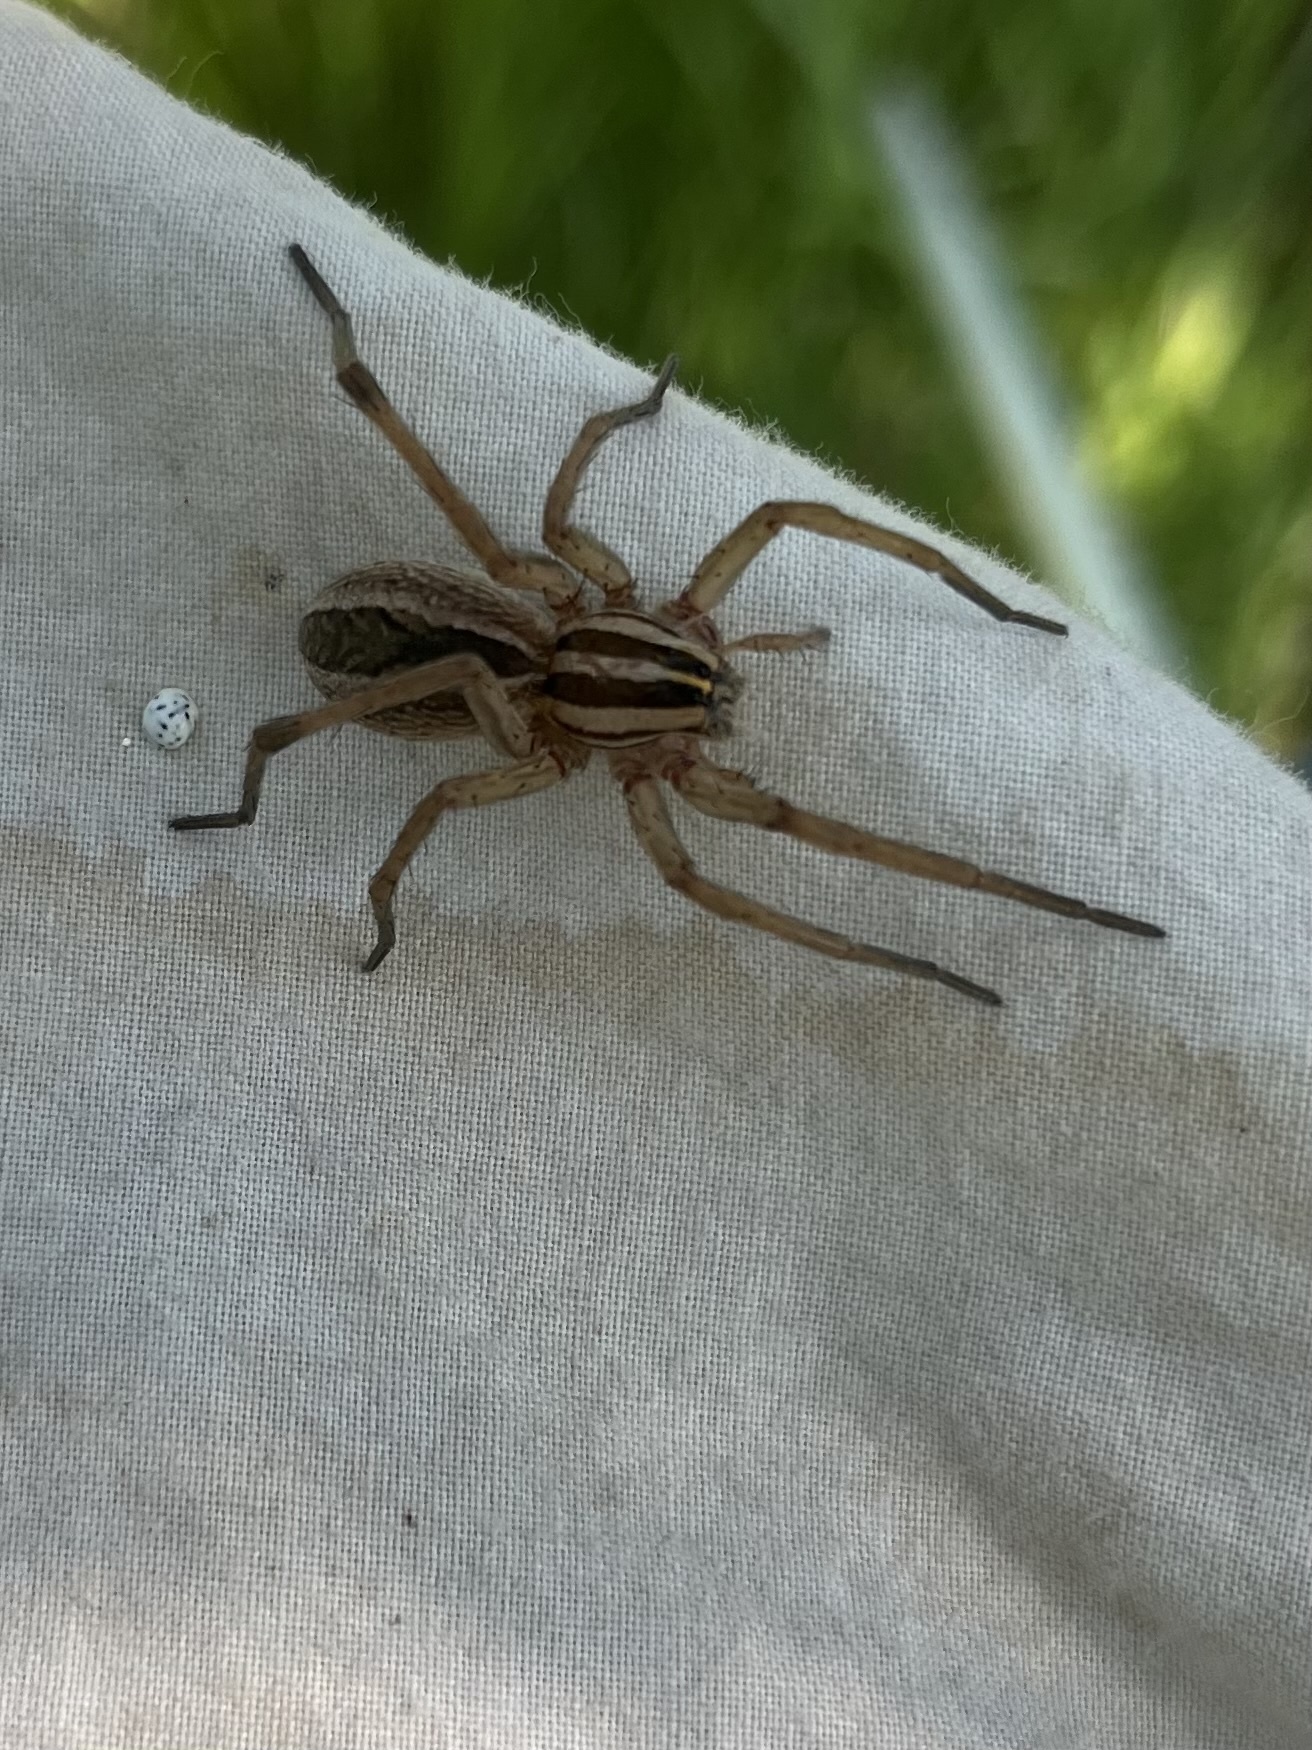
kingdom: Animalia
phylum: Arthropoda
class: Arachnida
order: Araneae
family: Lycosidae
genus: Rabidosa
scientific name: Rabidosa rabida
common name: Rabid wolf spider
